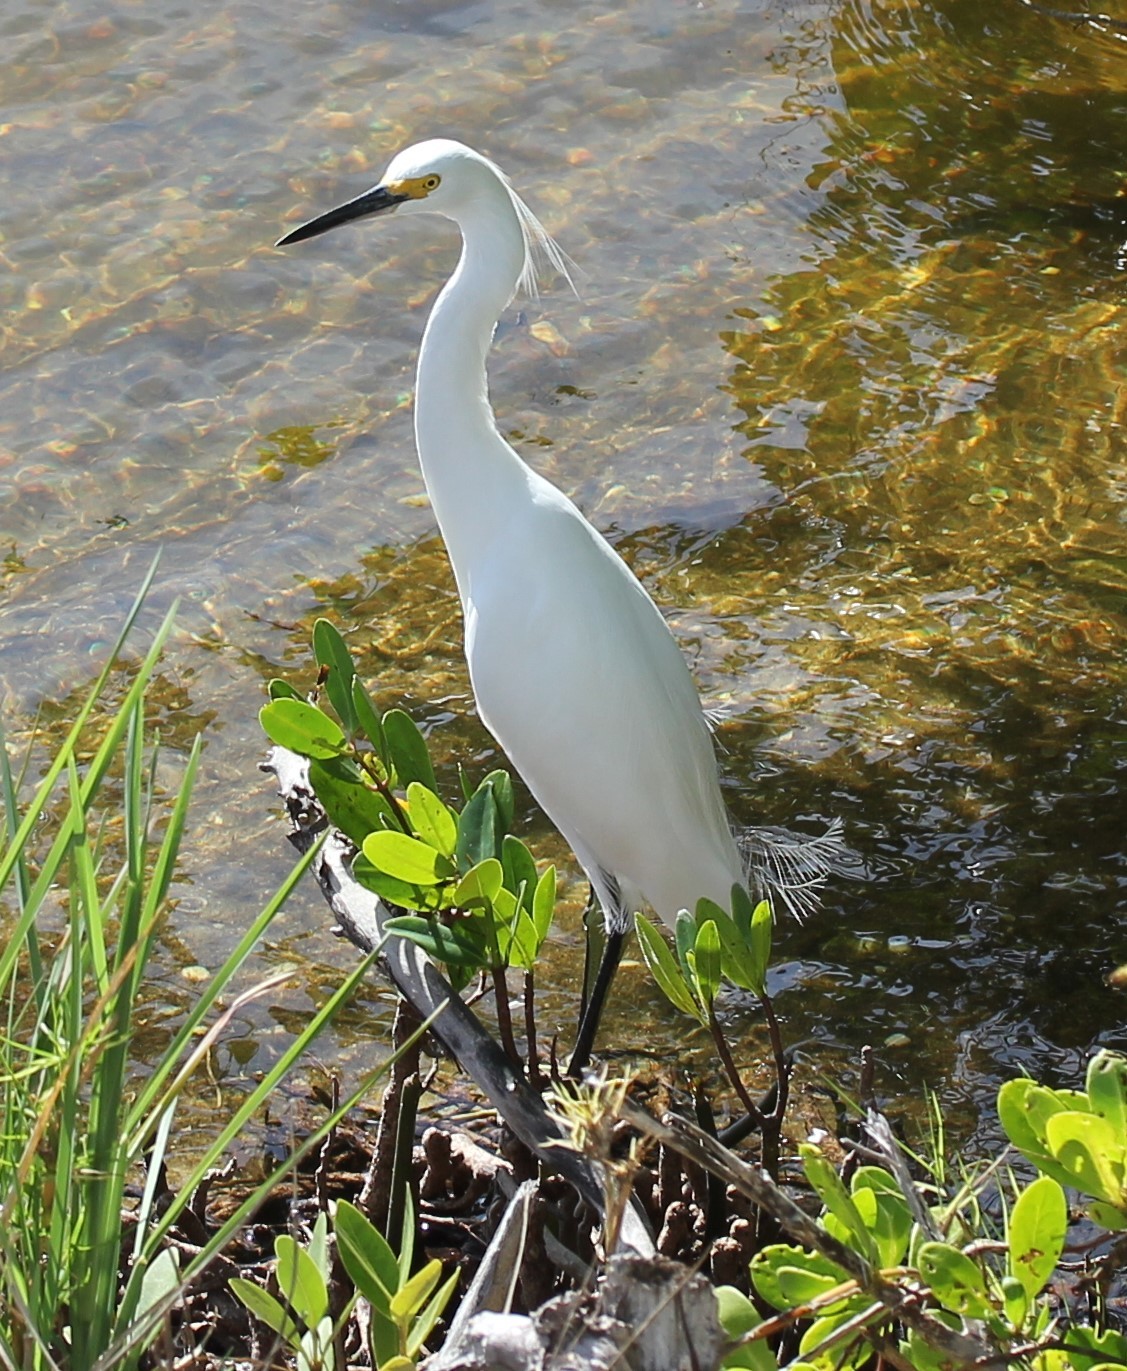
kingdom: Animalia
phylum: Chordata
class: Aves
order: Pelecaniformes
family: Ardeidae
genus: Egretta
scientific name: Egretta thula
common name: Snowy egret
